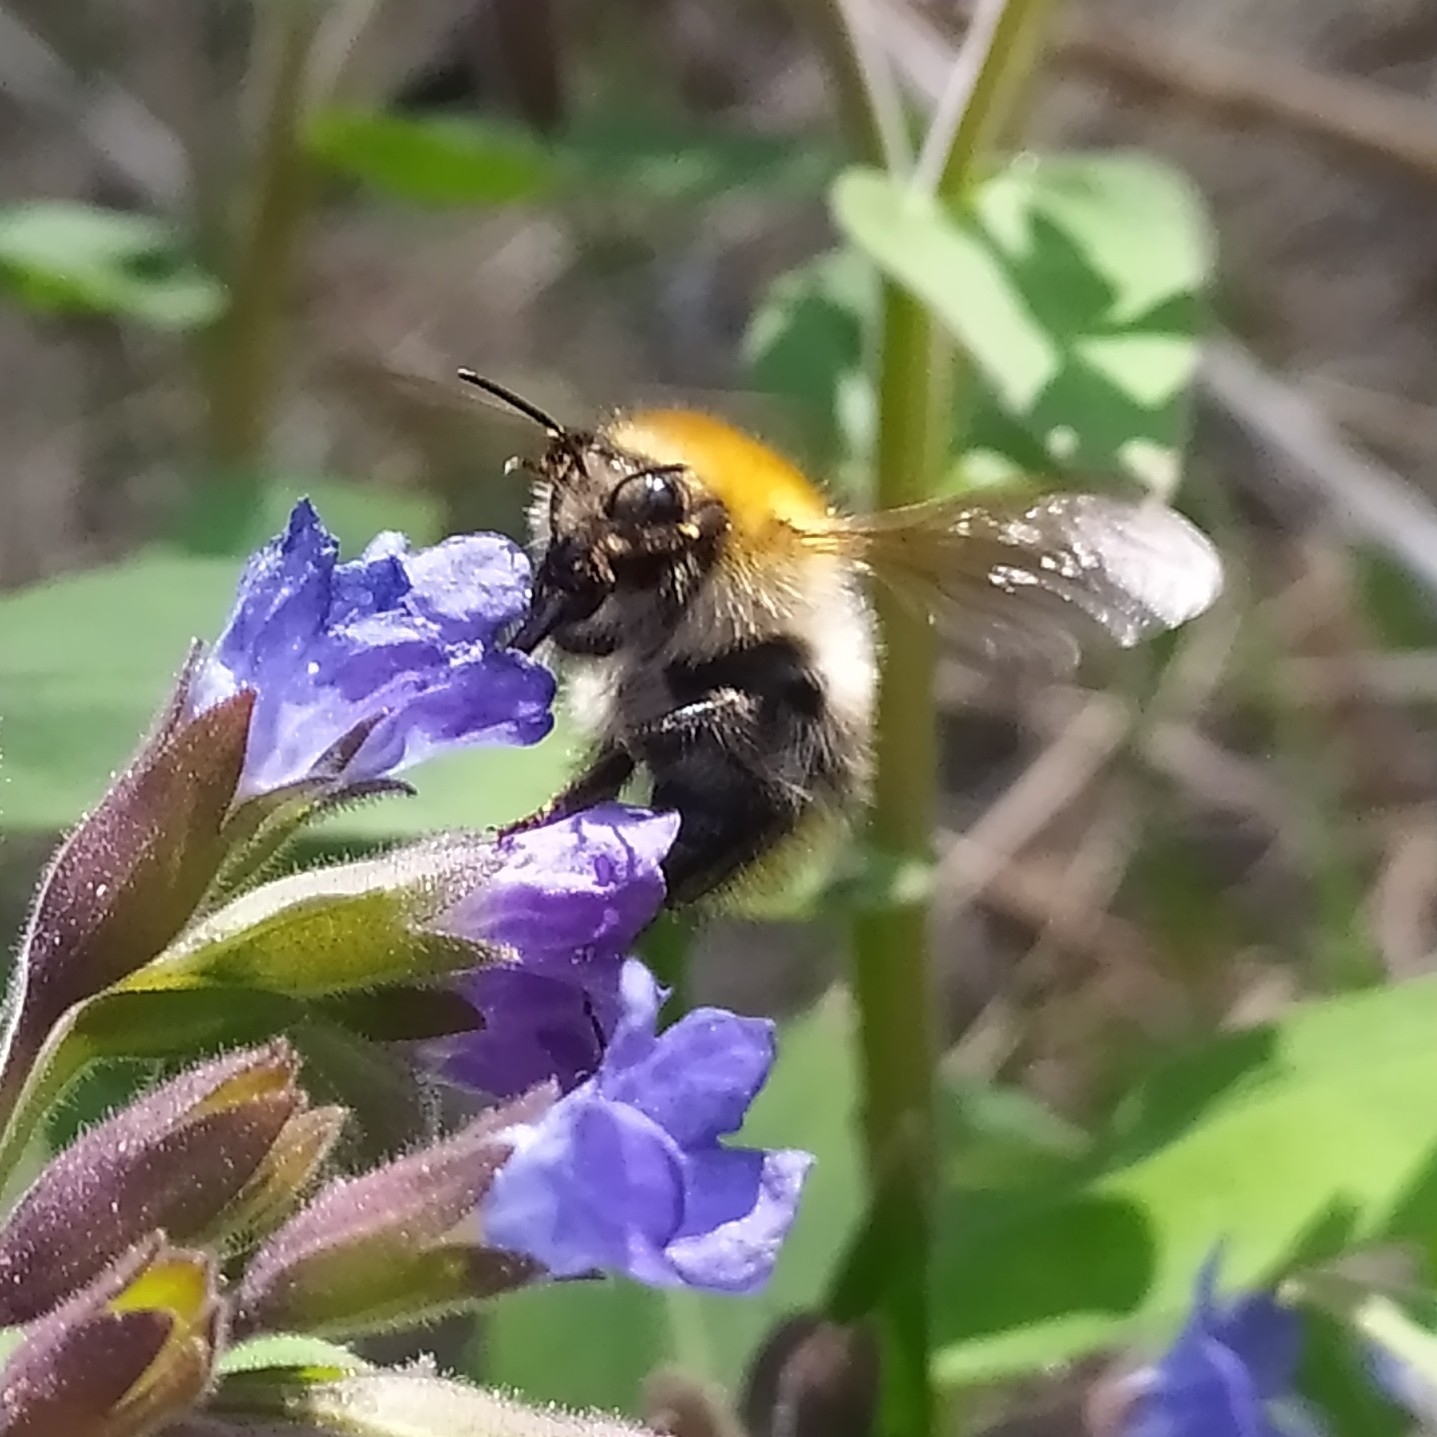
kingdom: Animalia
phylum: Arthropoda
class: Insecta
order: Hymenoptera
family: Apidae
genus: Bombus
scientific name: Bombus pascuorum
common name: Common carder bee
